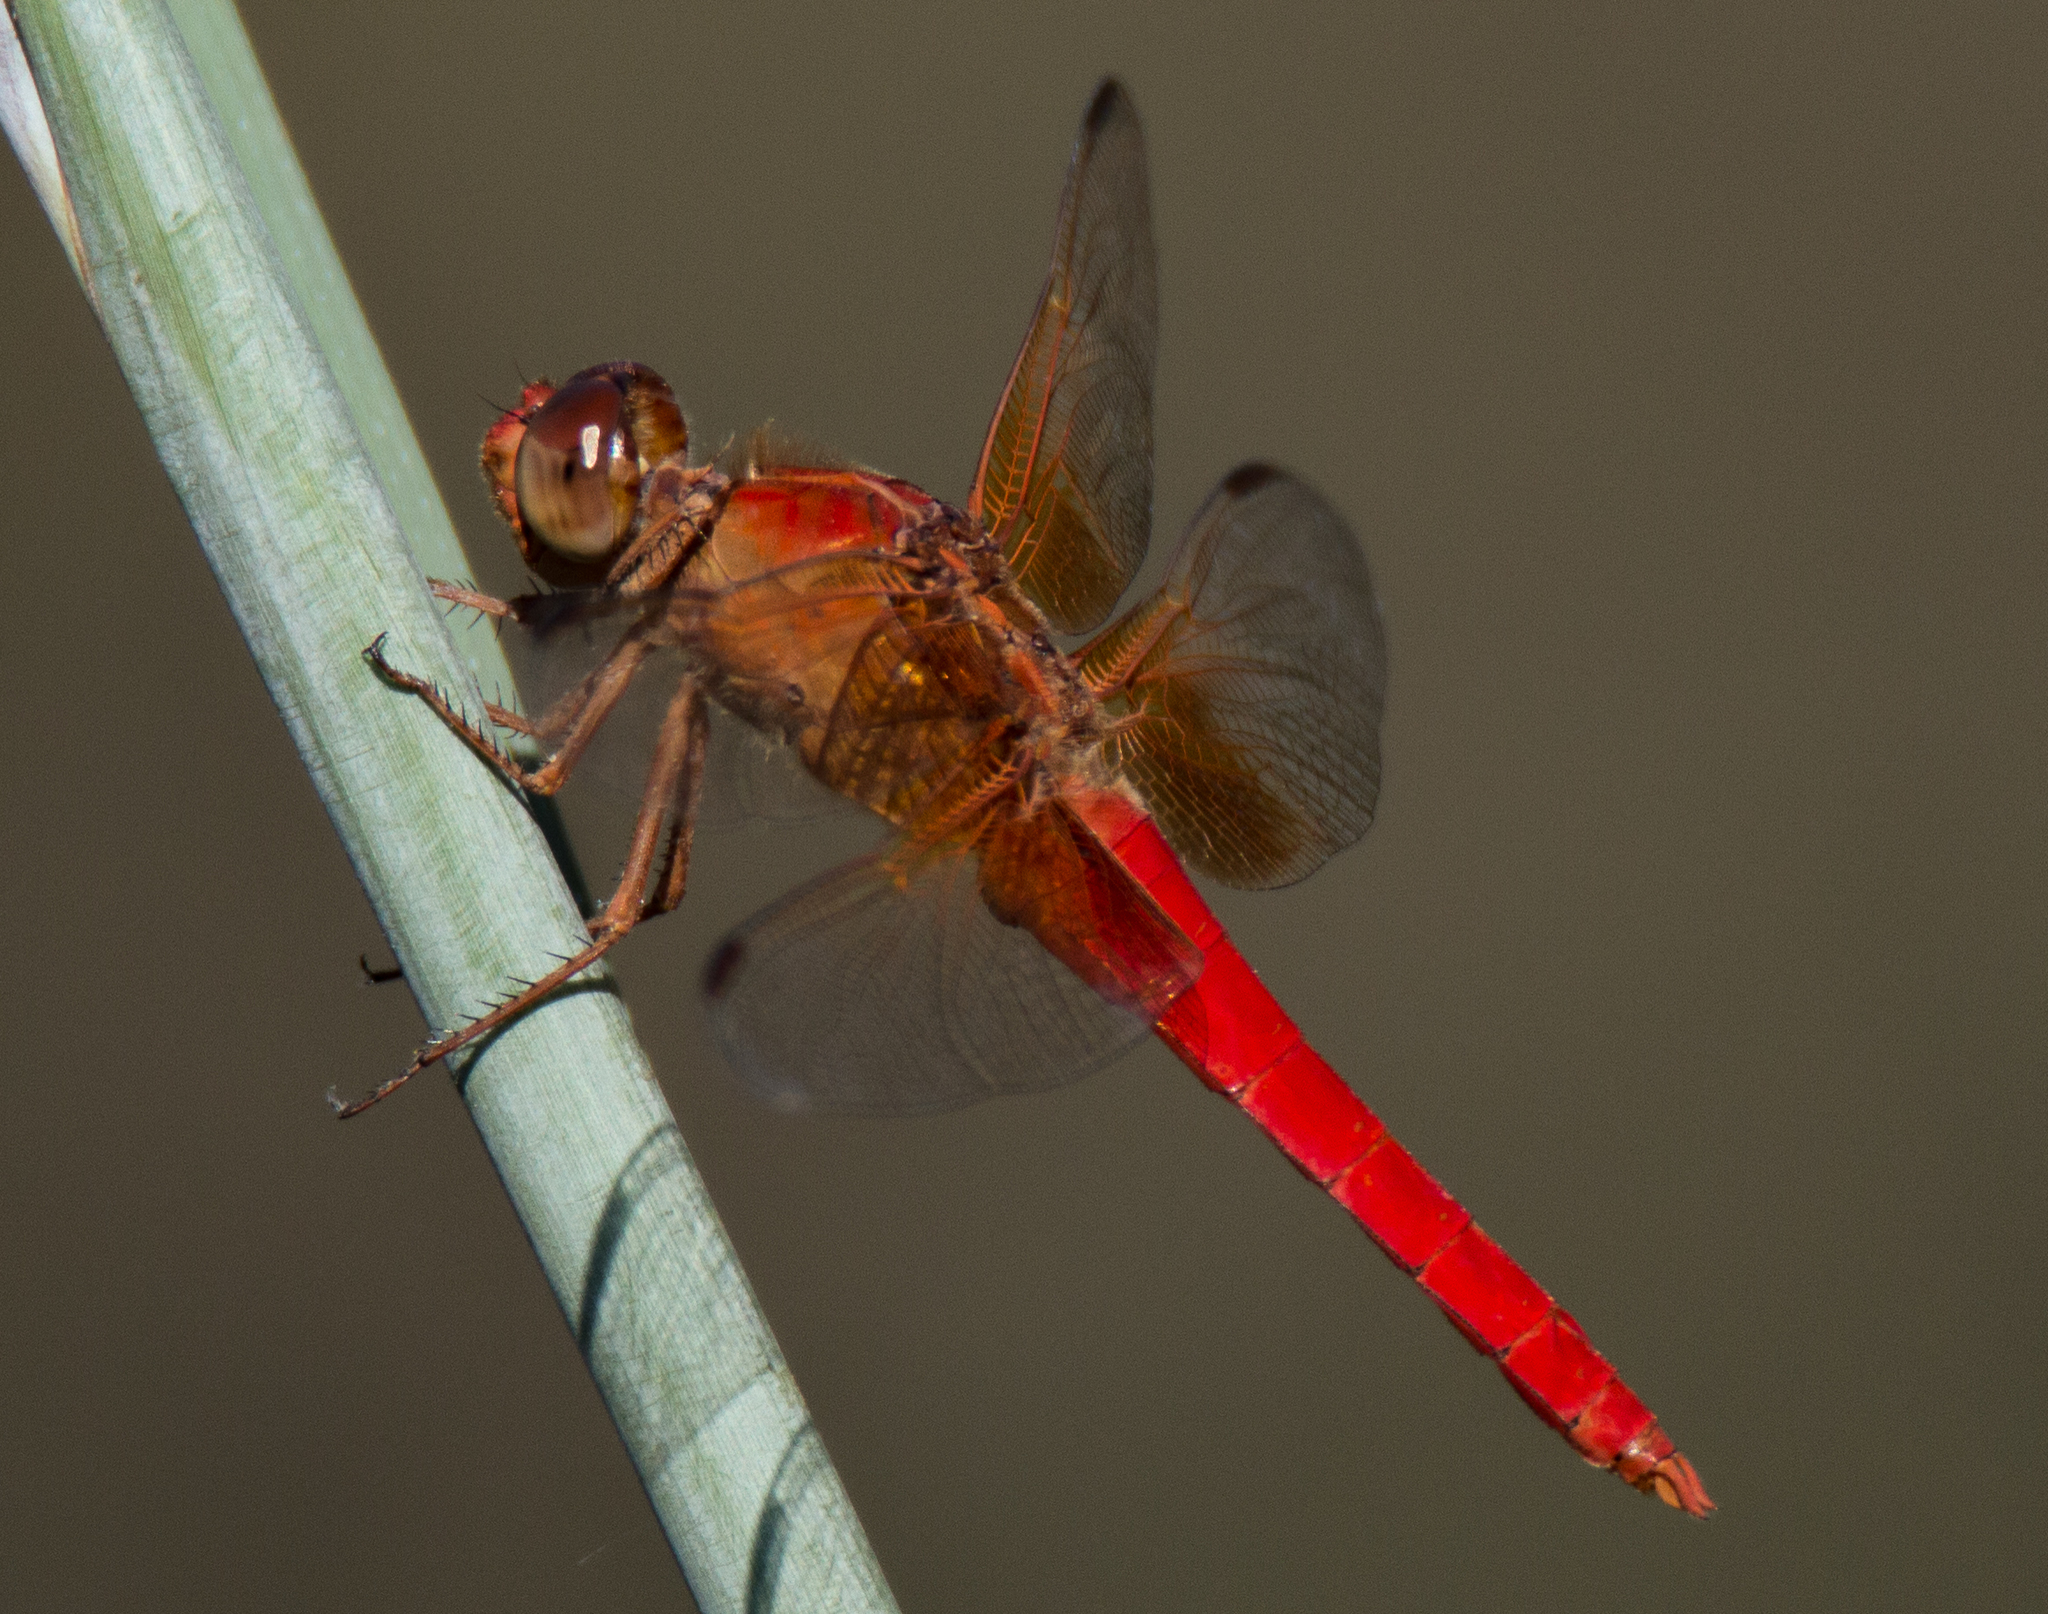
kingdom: Animalia
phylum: Arthropoda
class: Insecta
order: Odonata
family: Libellulidae
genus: Libellula
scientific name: Libellula croceipennis
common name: Neon skimmer
